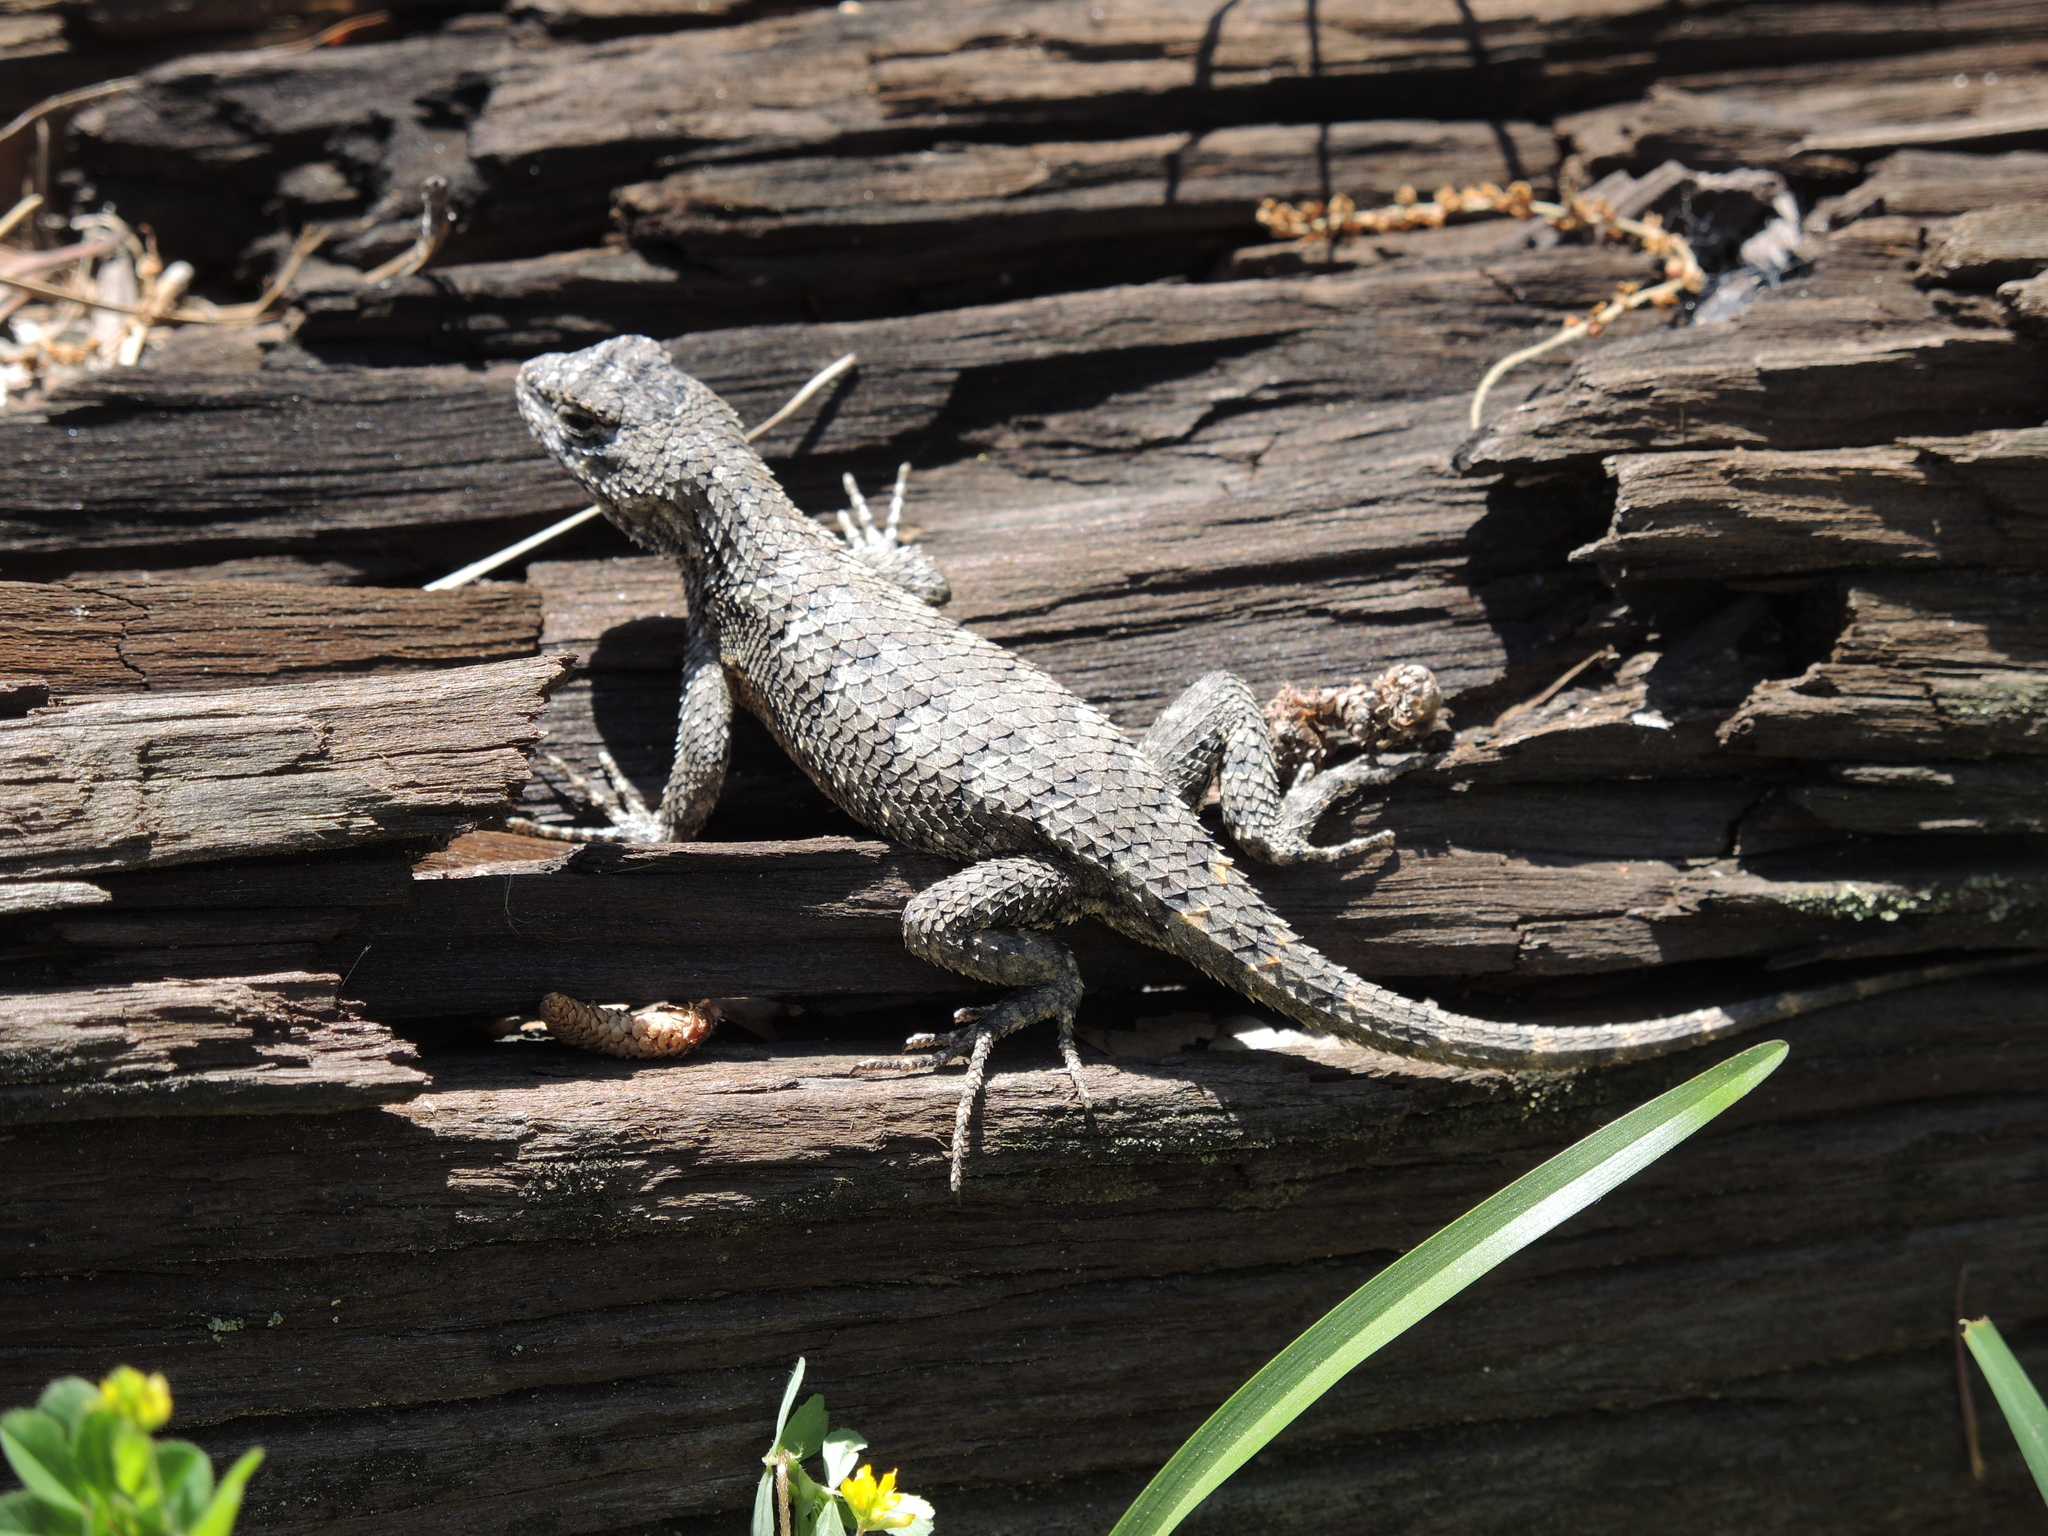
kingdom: Animalia
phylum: Chordata
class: Squamata
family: Phrynosomatidae
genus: Sceloporus
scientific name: Sceloporus undulatus
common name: Eastern fence lizard
